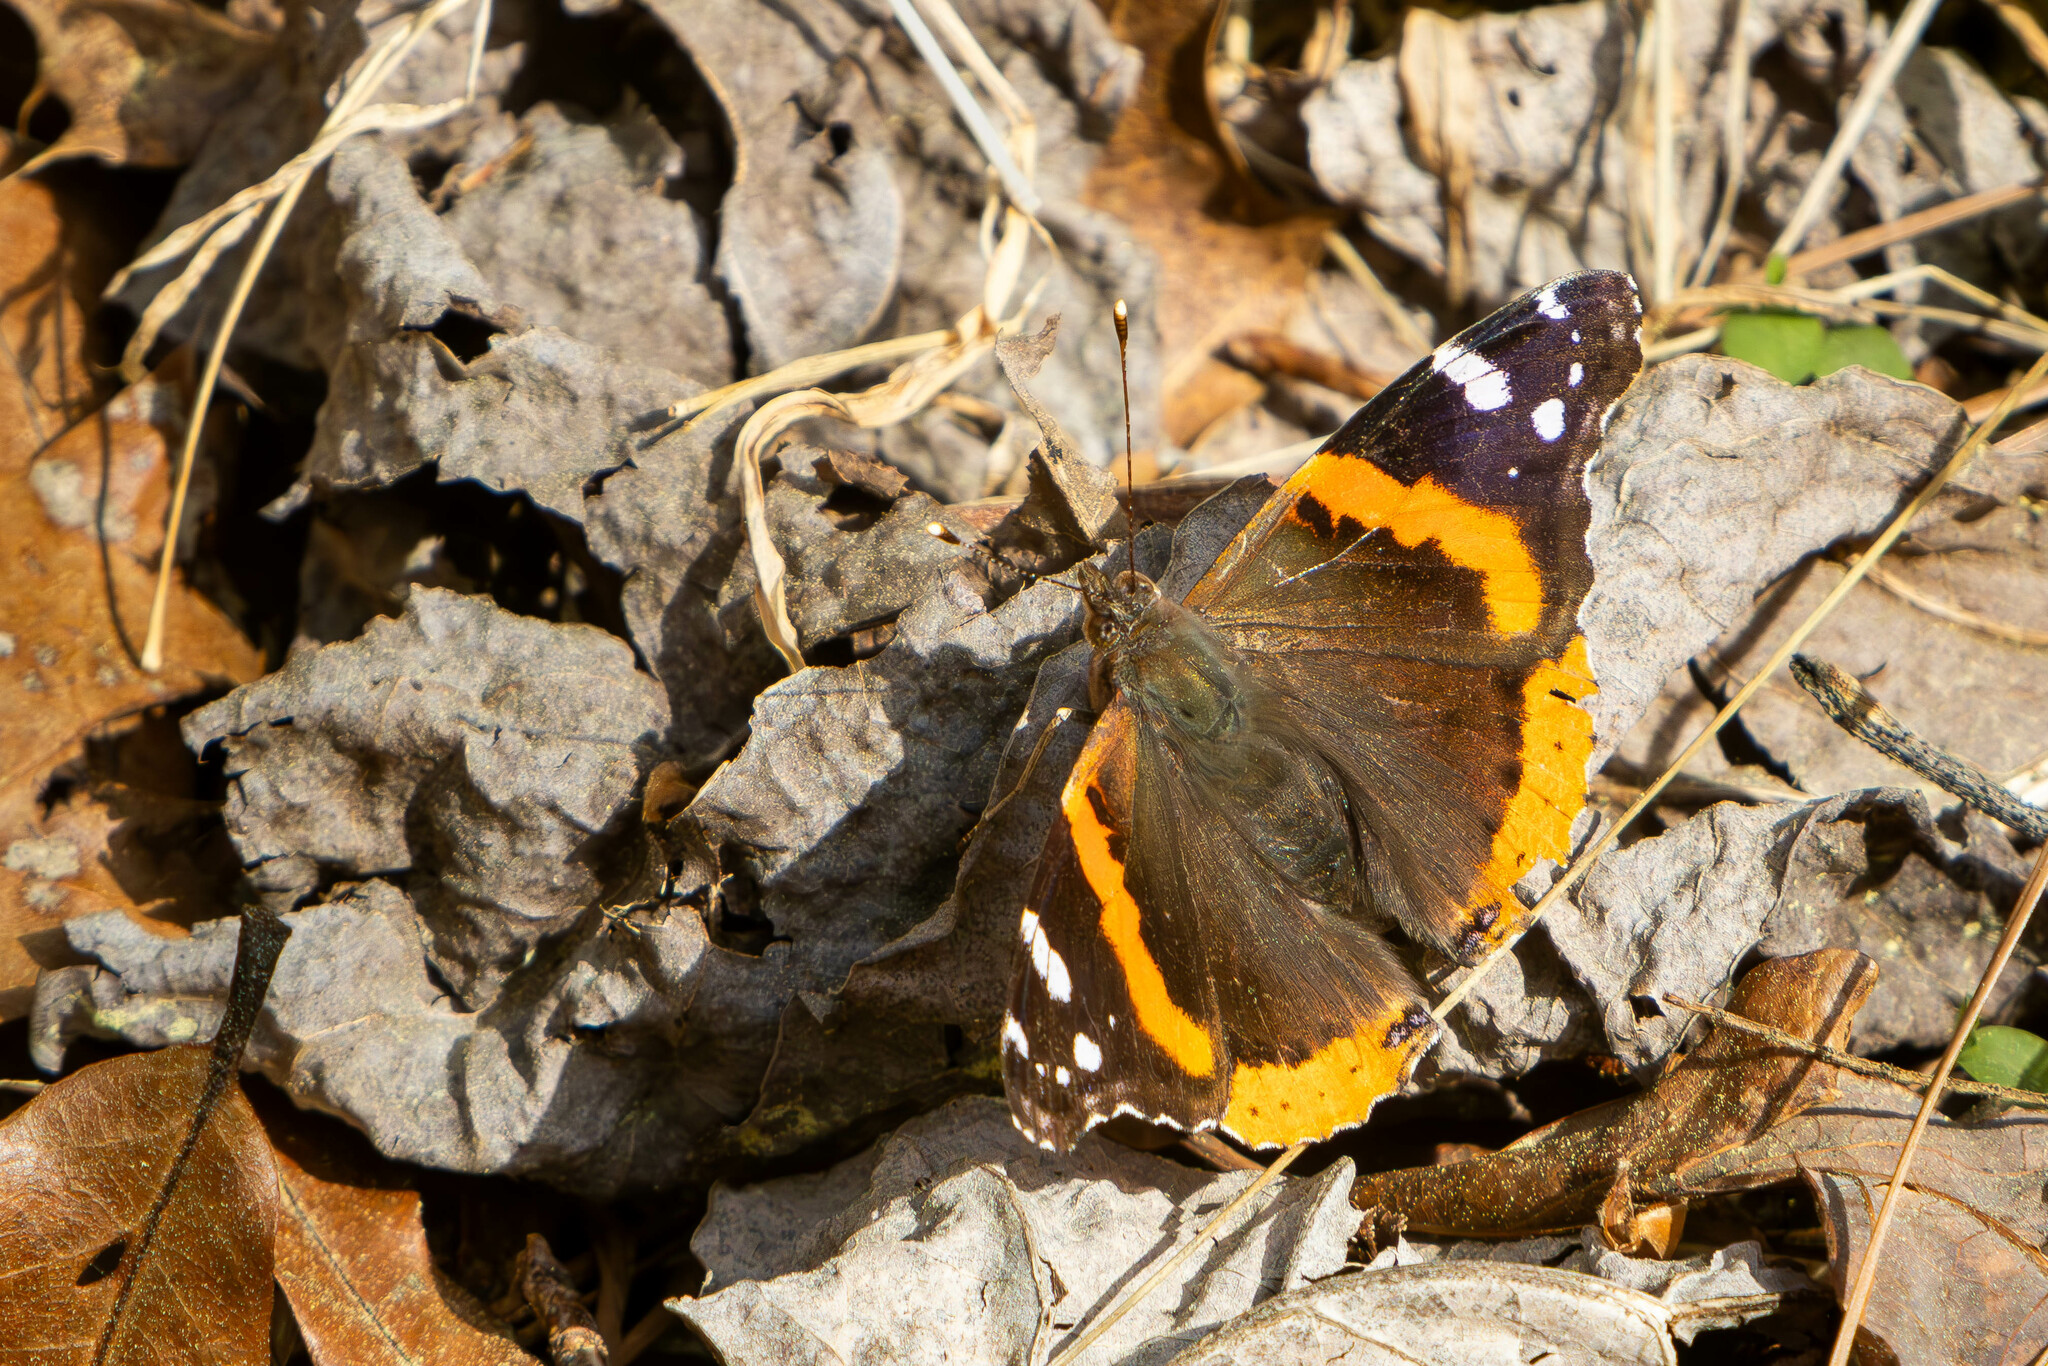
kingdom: Animalia
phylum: Arthropoda
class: Insecta
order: Lepidoptera
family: Nymphalidae
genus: Vanessa
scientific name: Vanessa atalanta
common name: Red admiral
